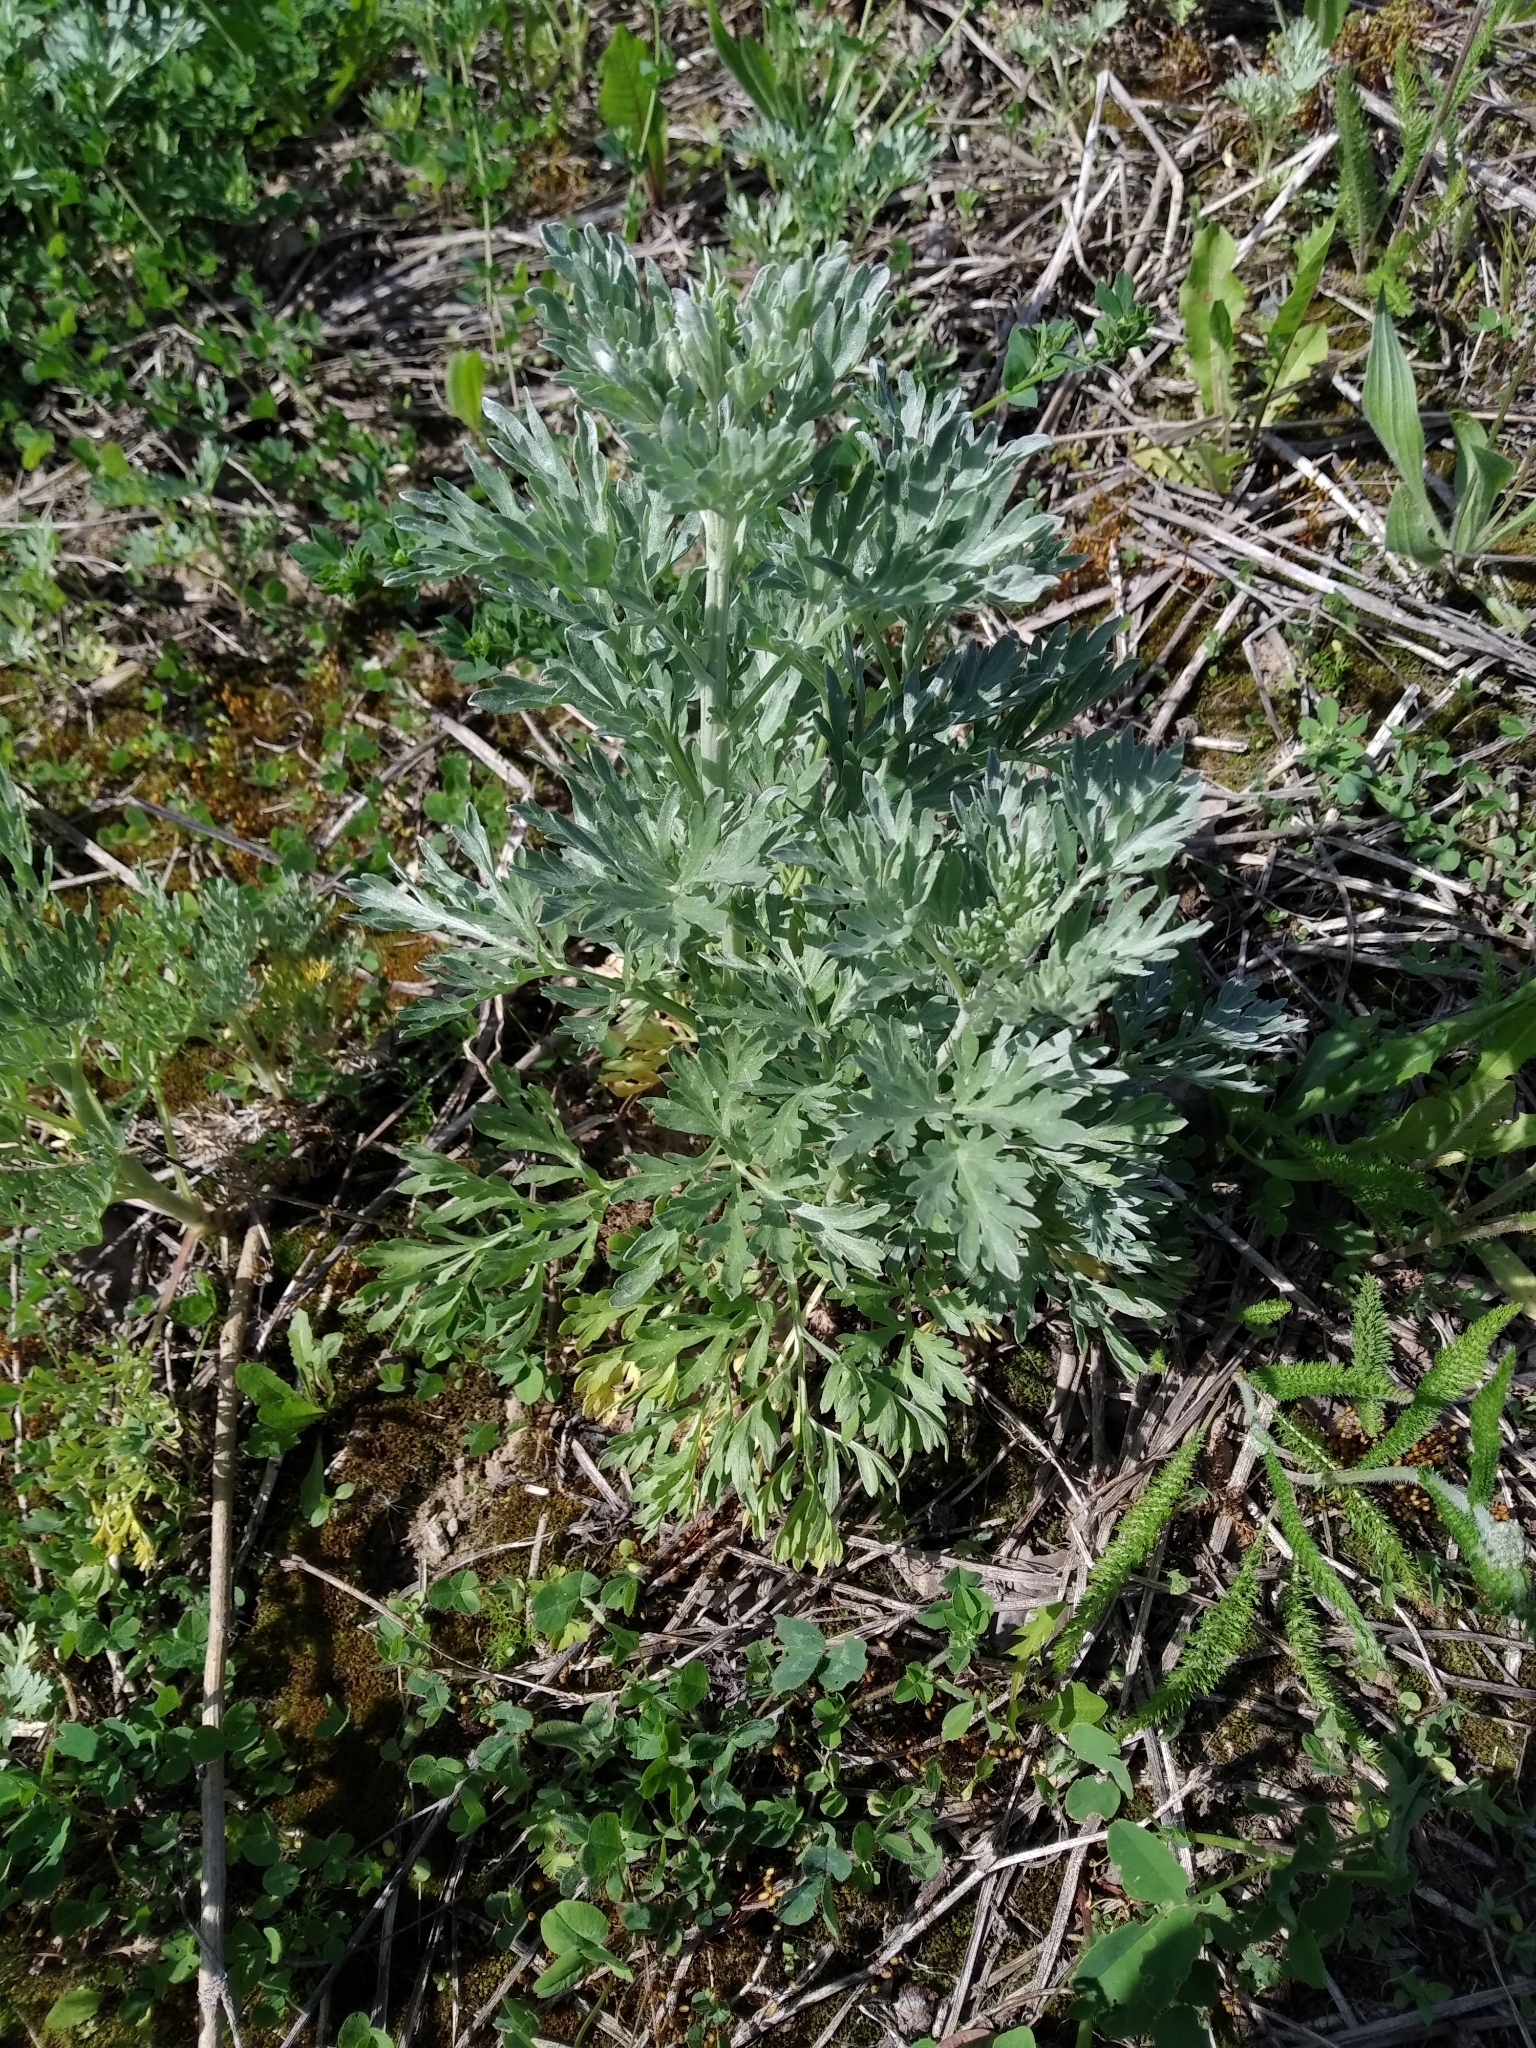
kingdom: Plantae
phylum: Tracheophyta
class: Magnoliopsida
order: Asterales
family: Asteraceae
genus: Artemisia
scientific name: Artemisia absinthium
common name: Wormwood
